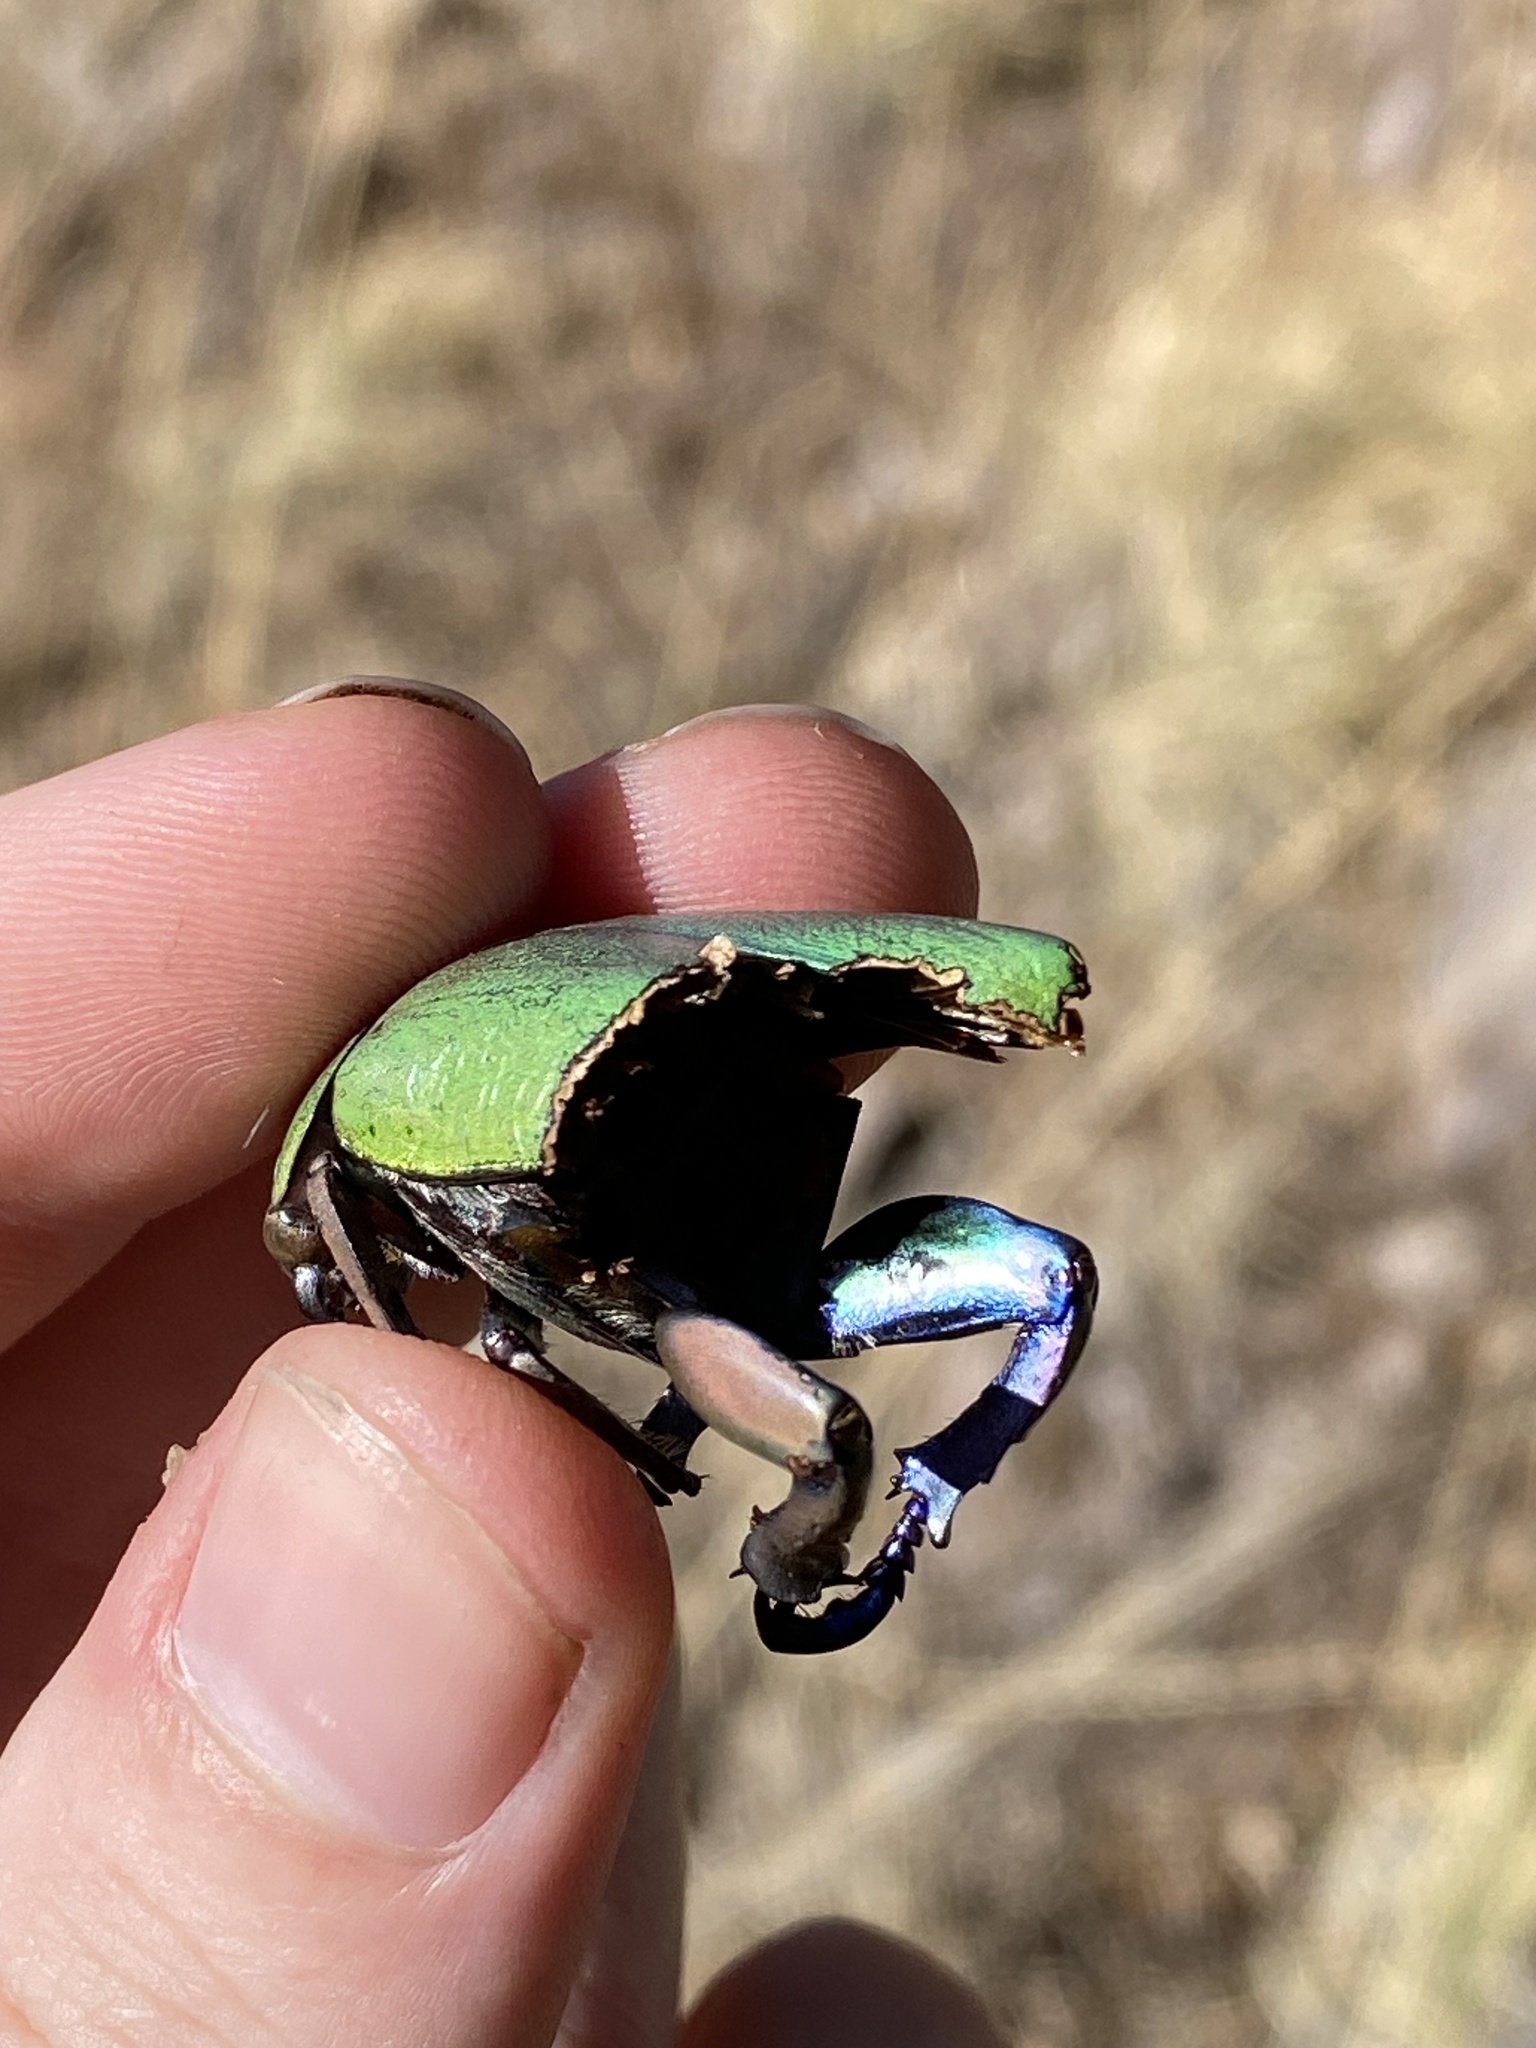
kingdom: Animalia
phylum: Arthropoda
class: Insecta
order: Coleoptera
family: Scarabaeidae
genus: Chrysina
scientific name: Chrysina erubescens
